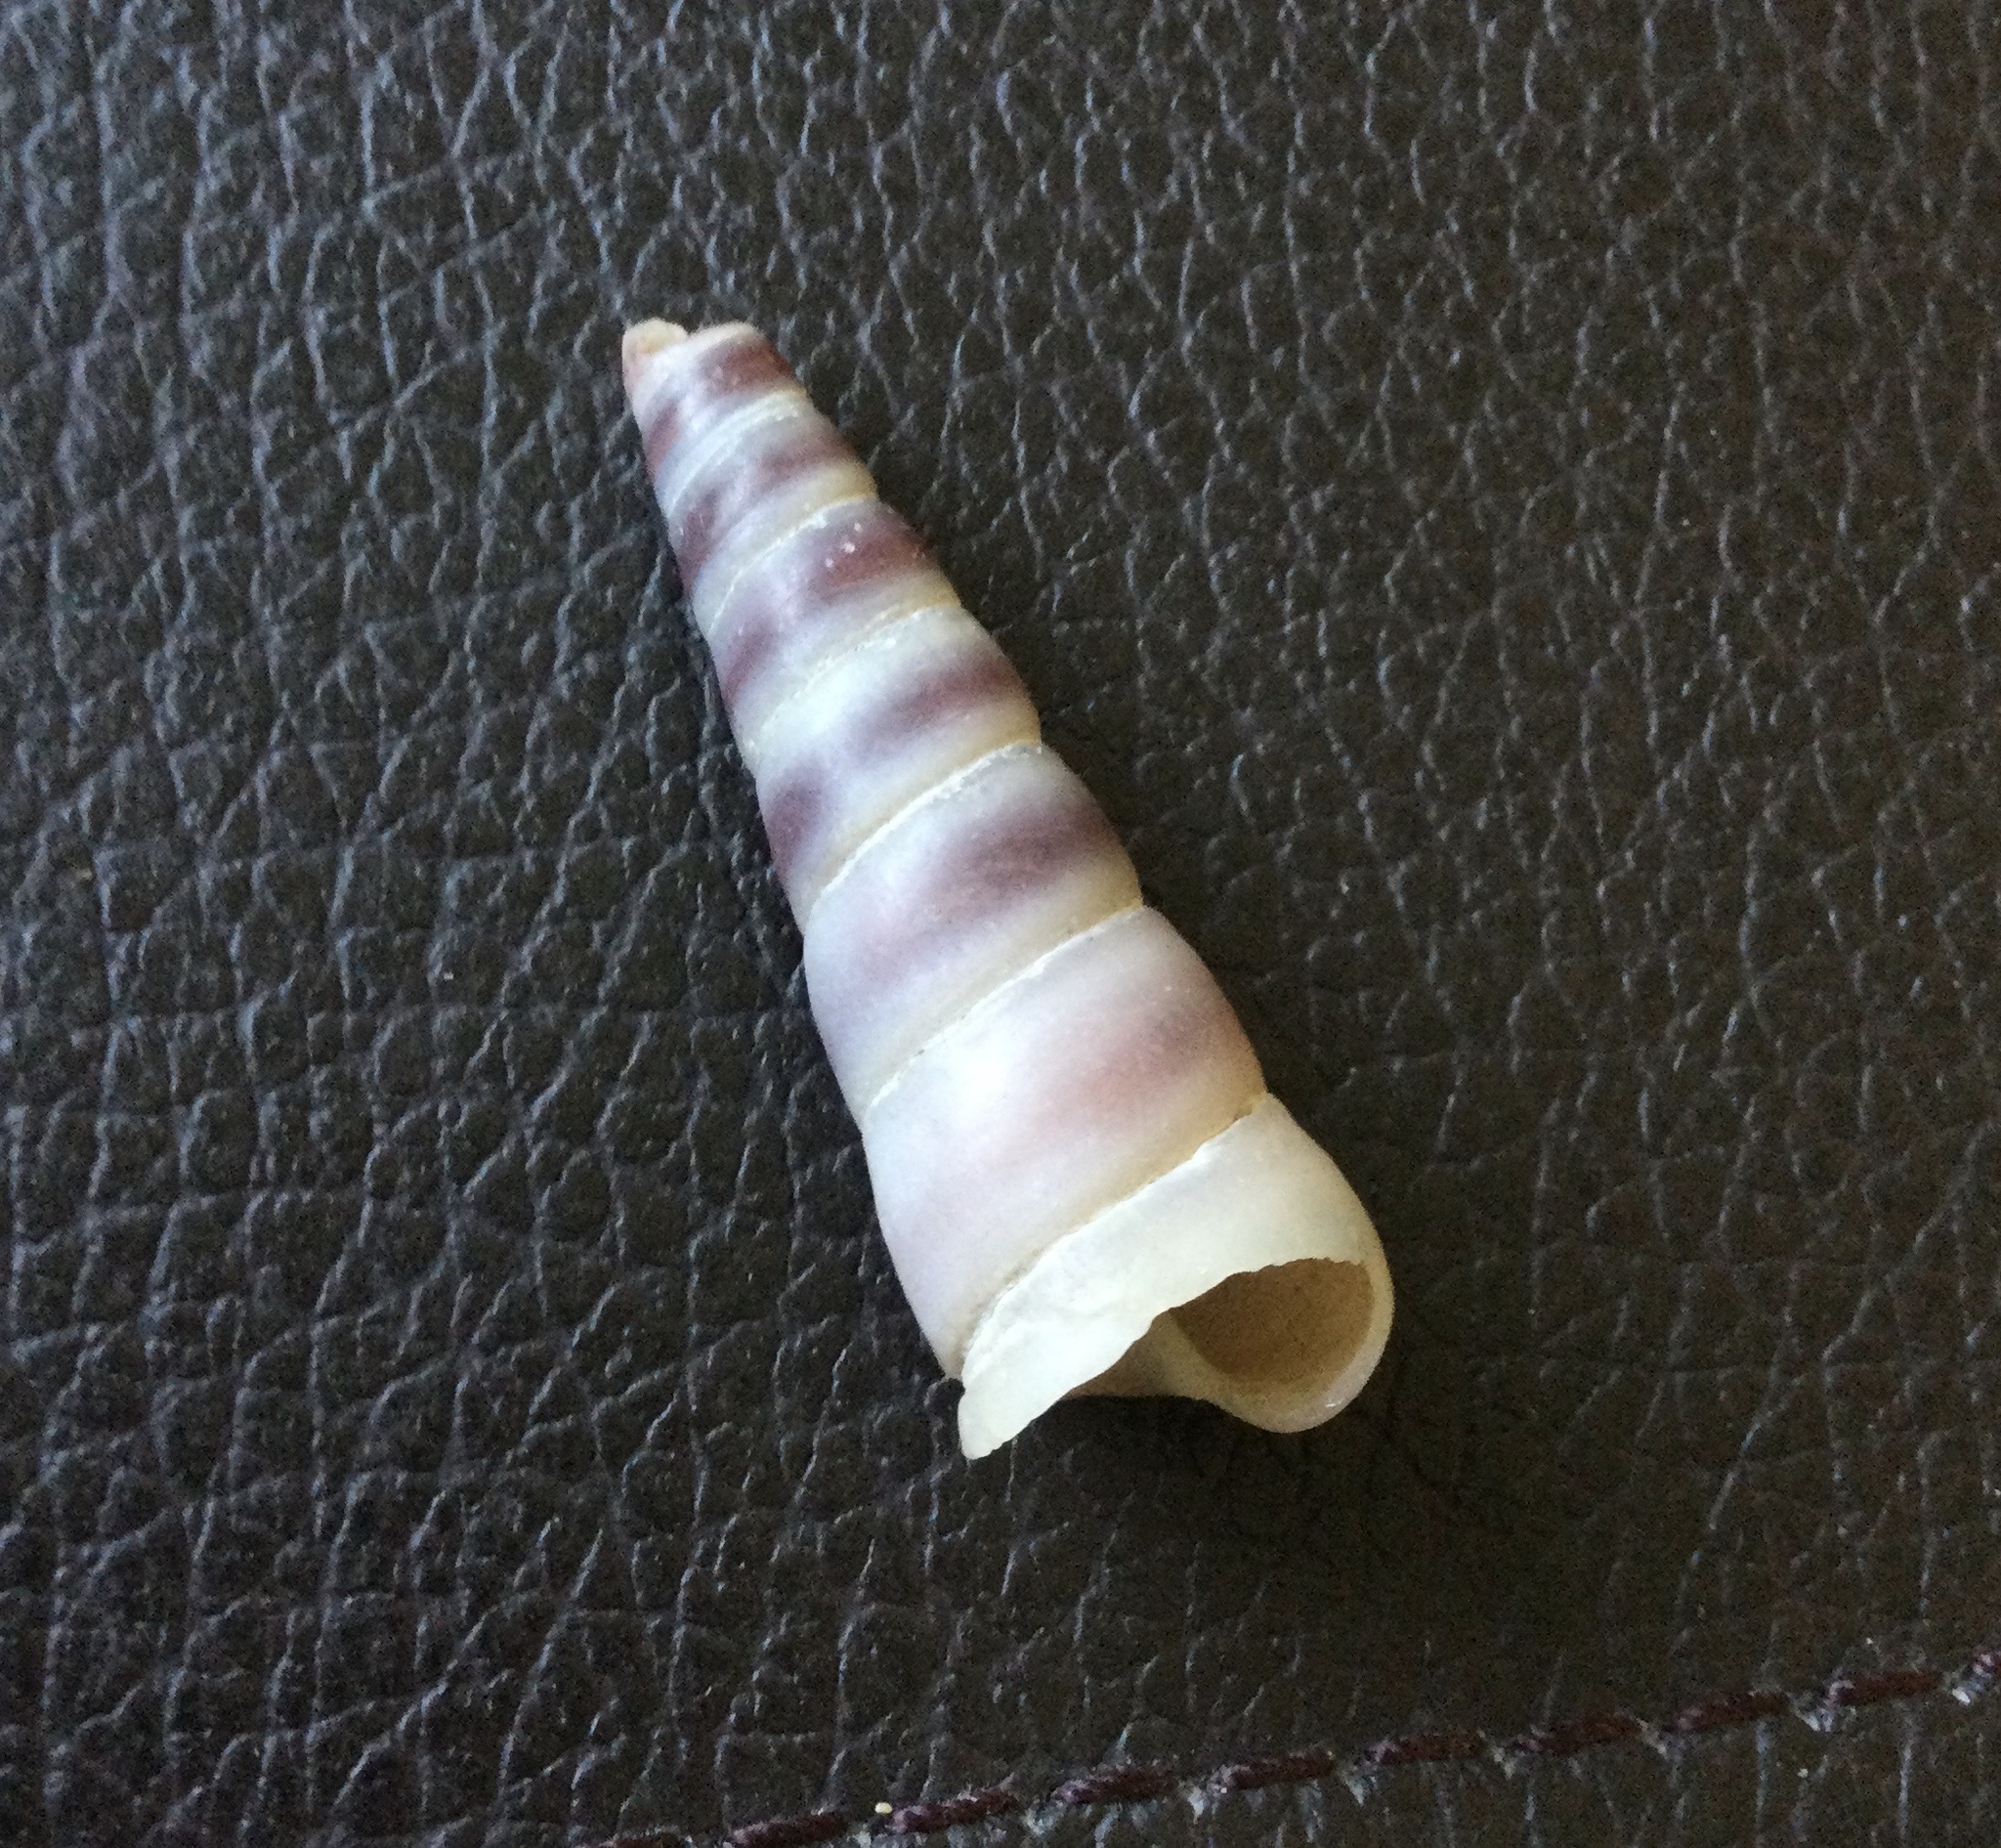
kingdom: Animalia
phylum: Mollusca
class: Gastropoda
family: Turritellidae
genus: Turritellinella
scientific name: Turritellinella tricarinata
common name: Auger shell
